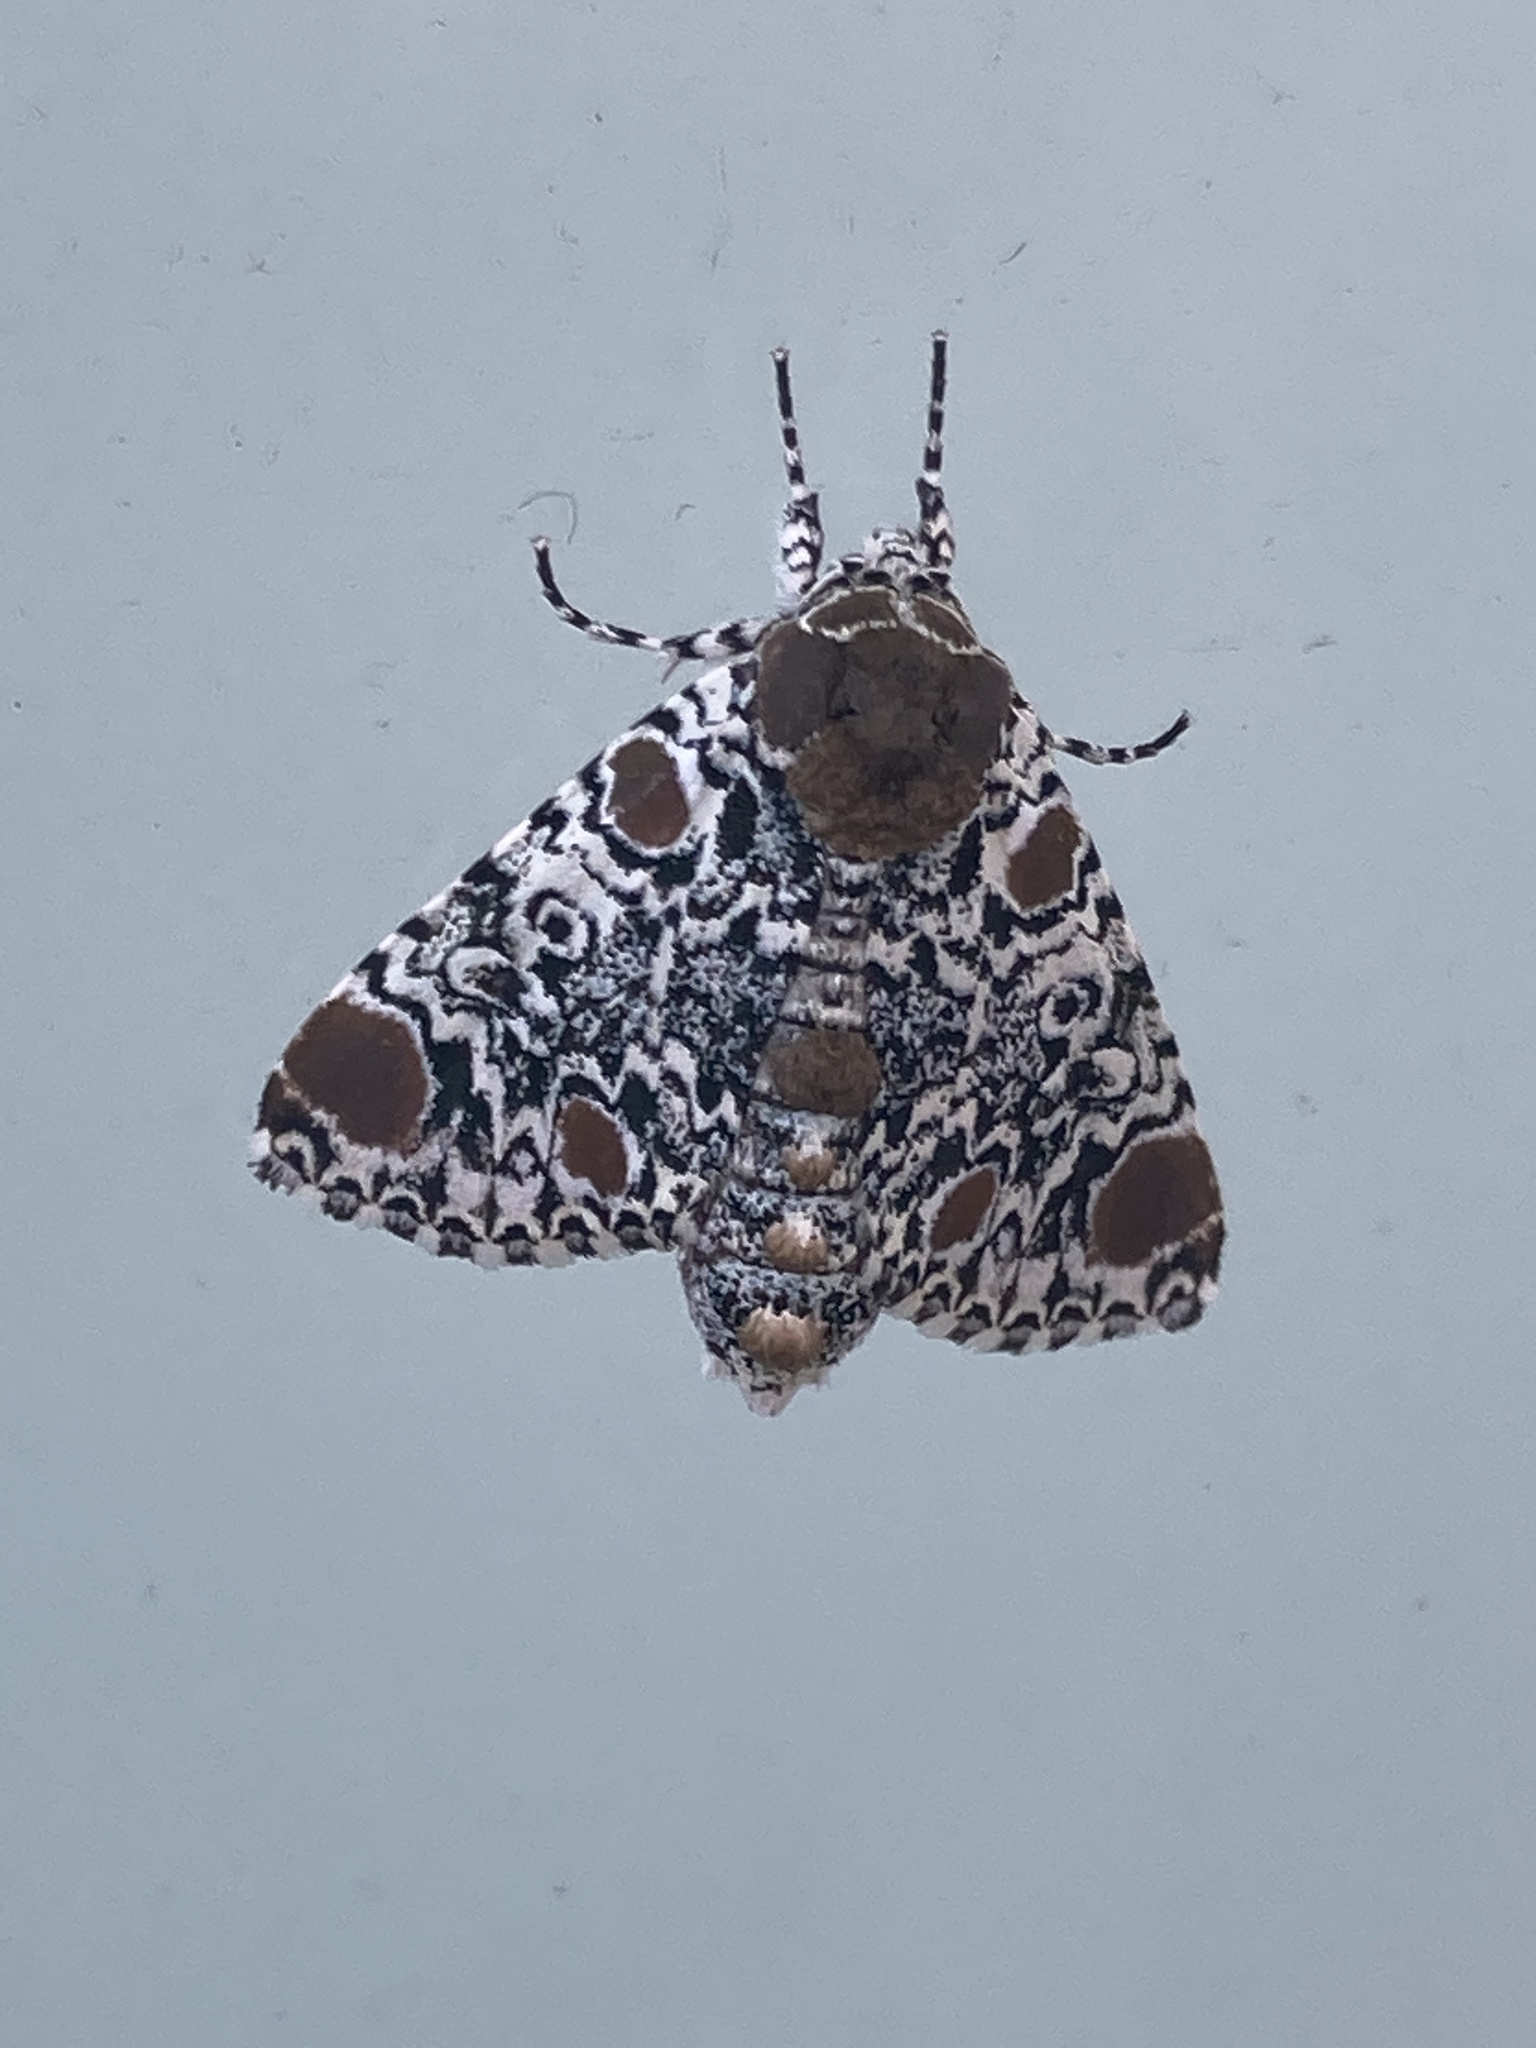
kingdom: Animalia
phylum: Arthropoda
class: Insecta
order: Lepidoptera
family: Noctuidae
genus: Harrisimemna
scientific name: Harrisimemna trisignata
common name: Harris threespot
